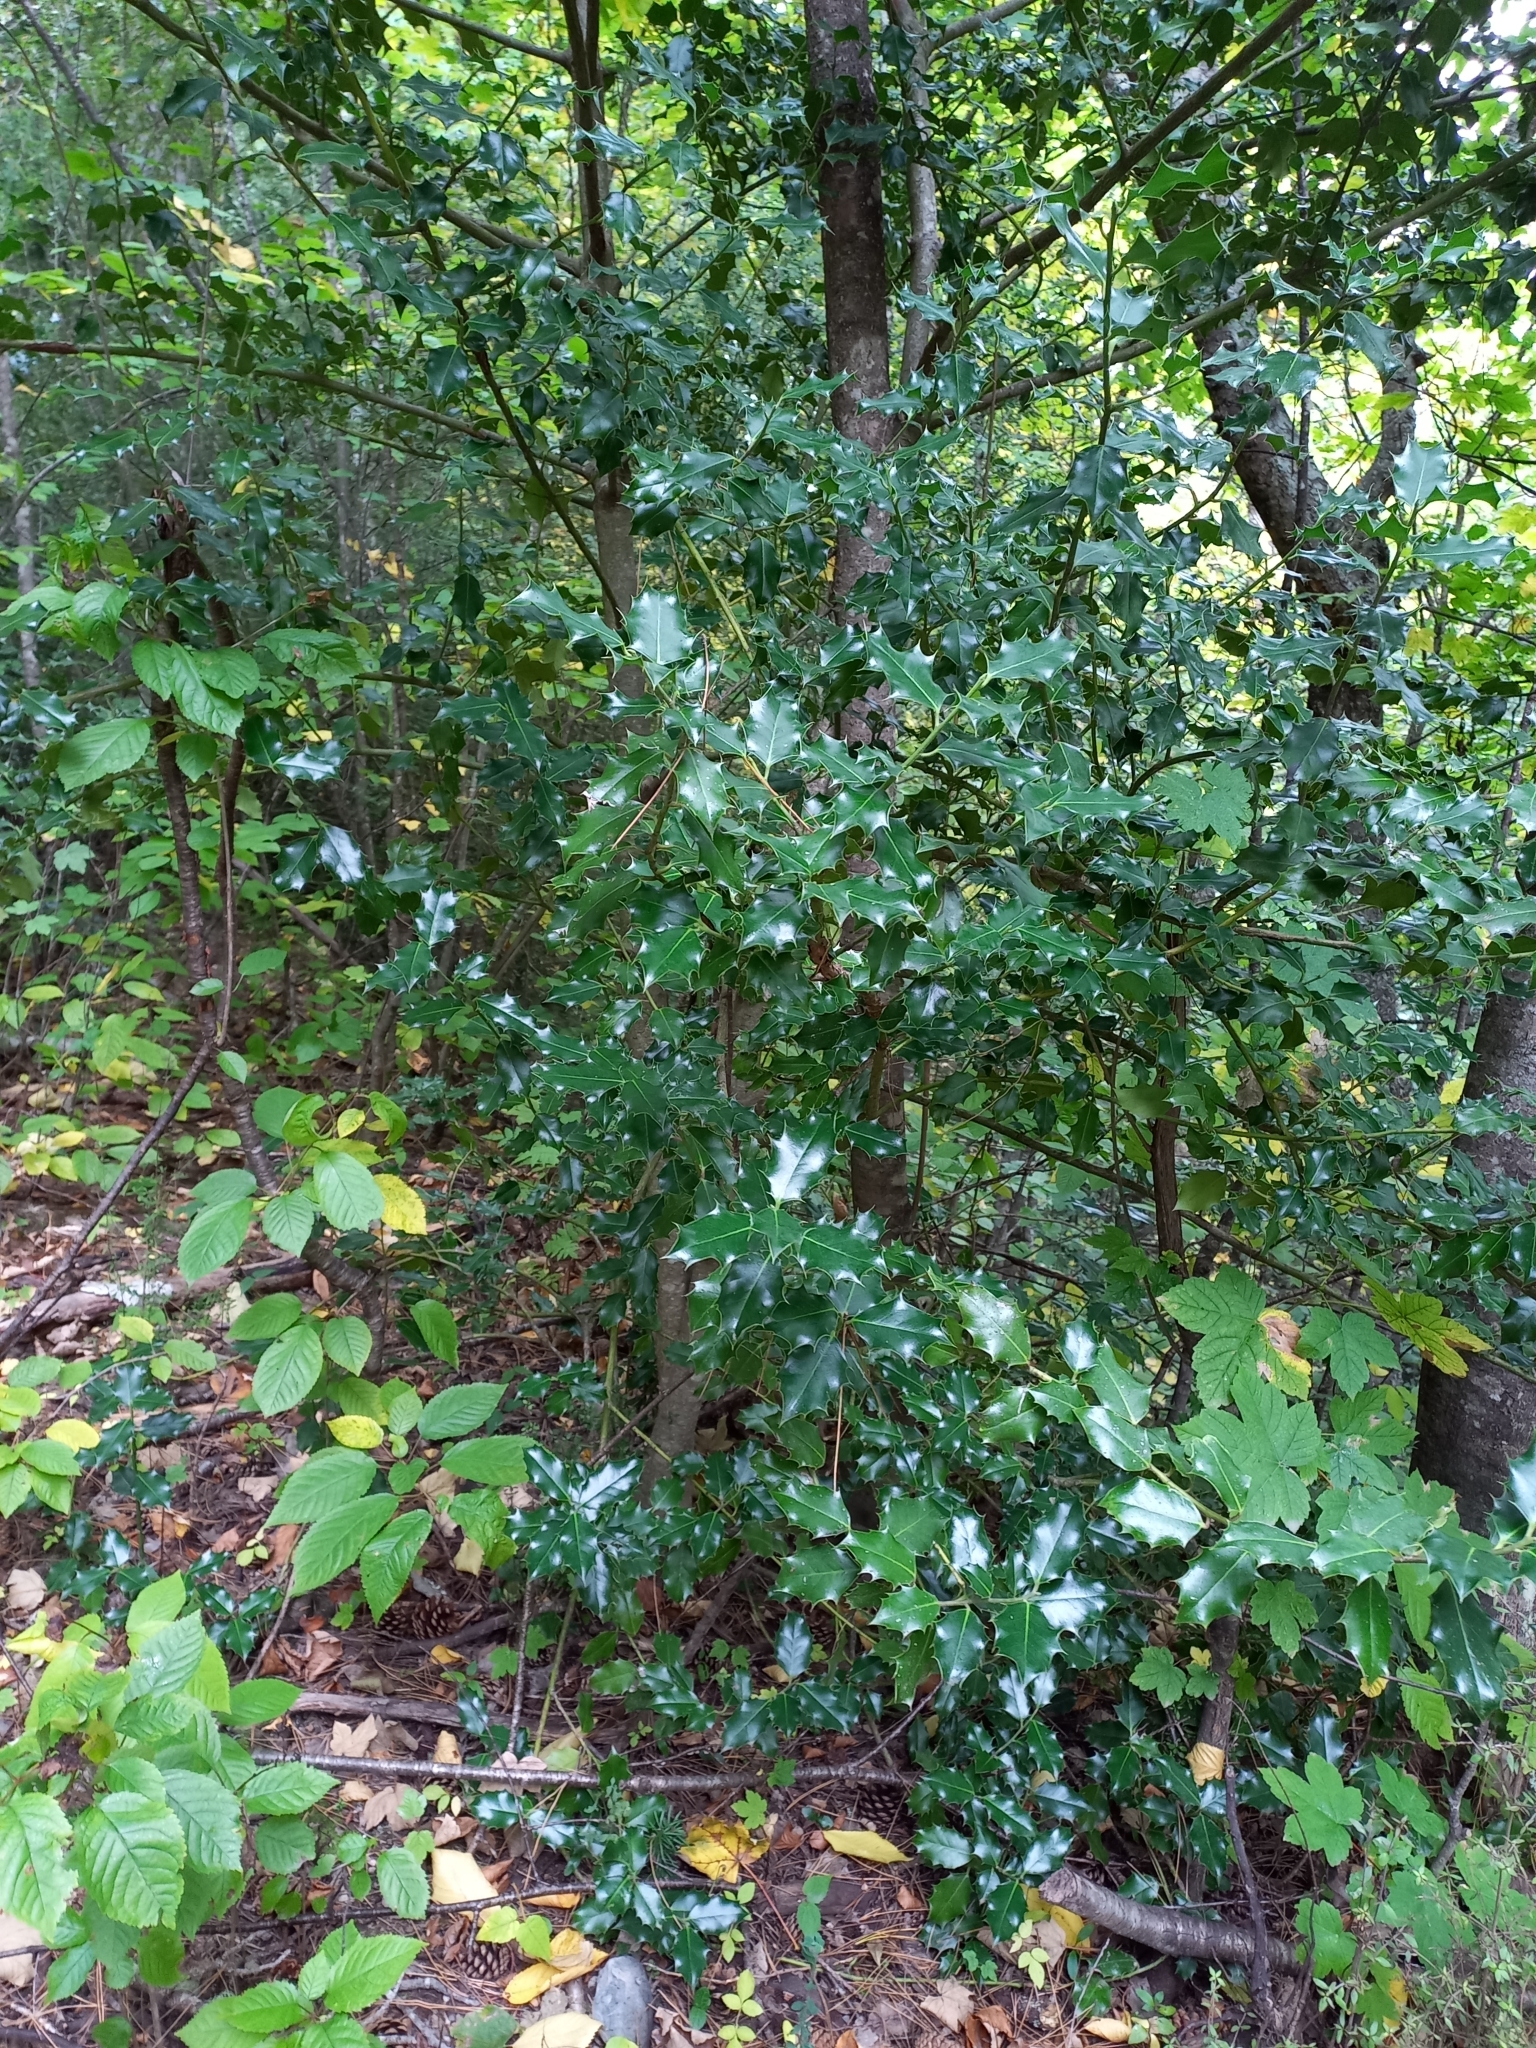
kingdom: Plantae
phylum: Tracheophyta
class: Magnoliopsida
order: Aquifoliales
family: Aquifoliaceae
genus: Ilex
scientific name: Ilex aquifolium
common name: English holly
